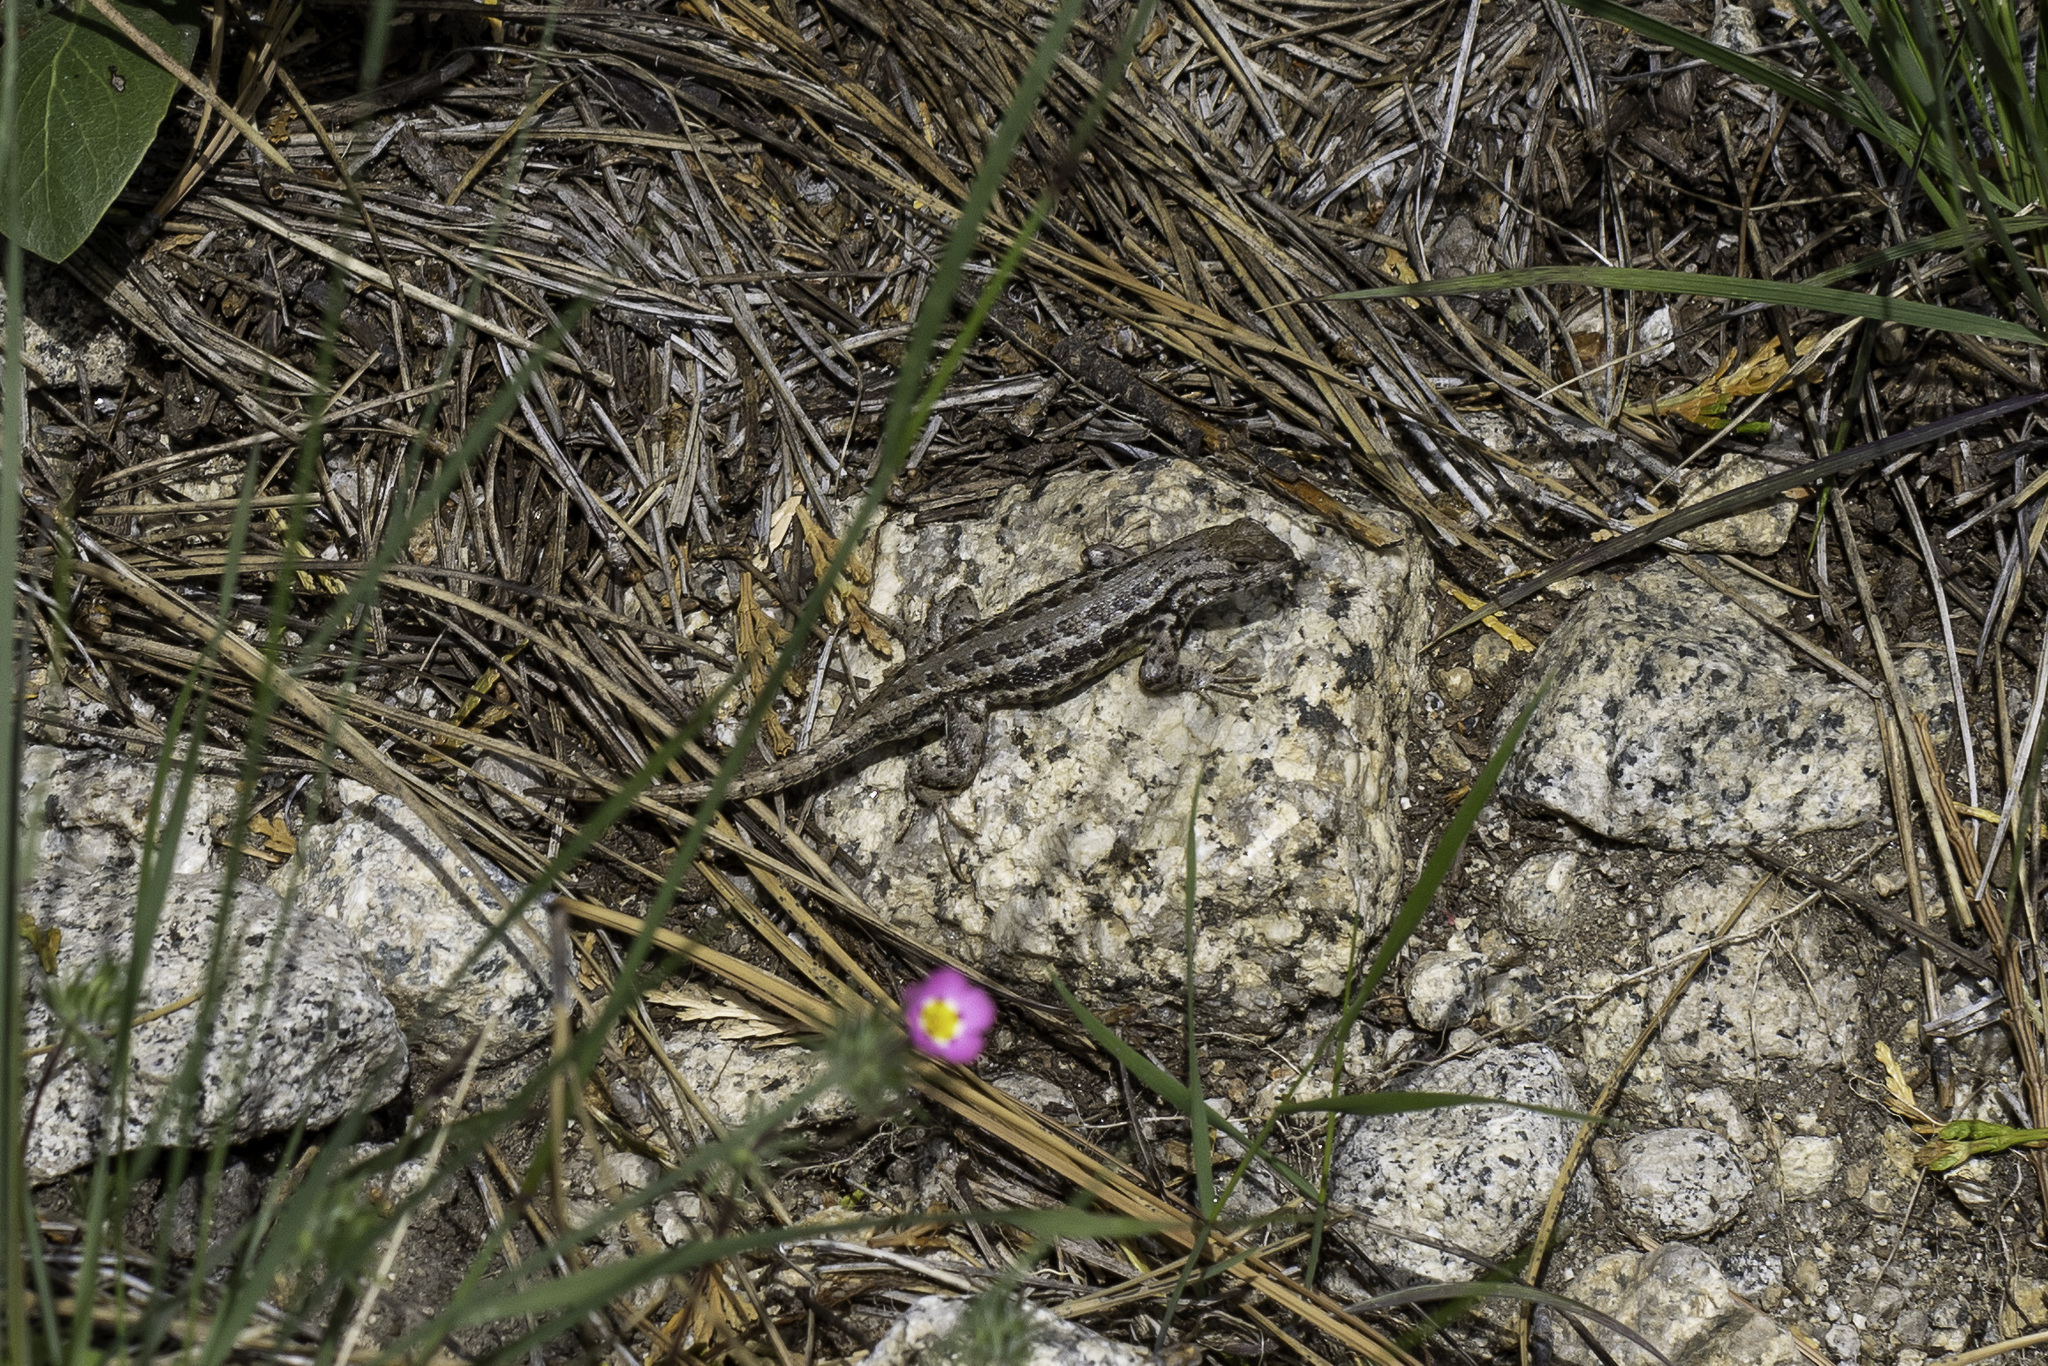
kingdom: Animalia
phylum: Chordata
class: Squamata
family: Phrynosomatidae
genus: Sceloporus
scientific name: Sceloporus graciosus
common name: Sagebrush lizard
